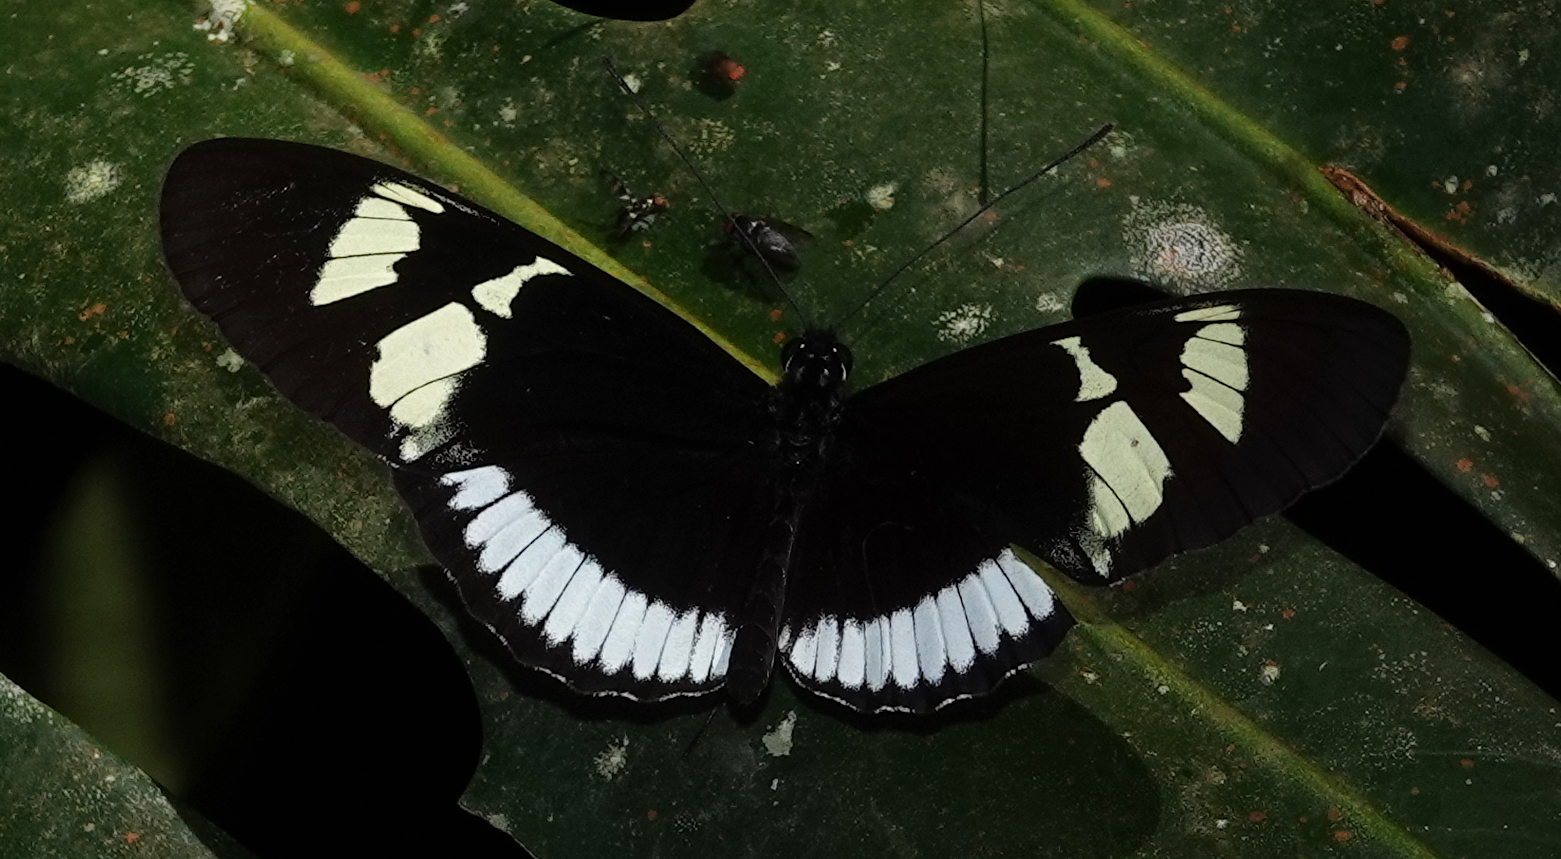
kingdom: Animalia
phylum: Arthropoda
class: Insecta
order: Lepidoptera
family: Nymphalidae
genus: Heliconius
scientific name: Heliconius cydno
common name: Cydno longwing
